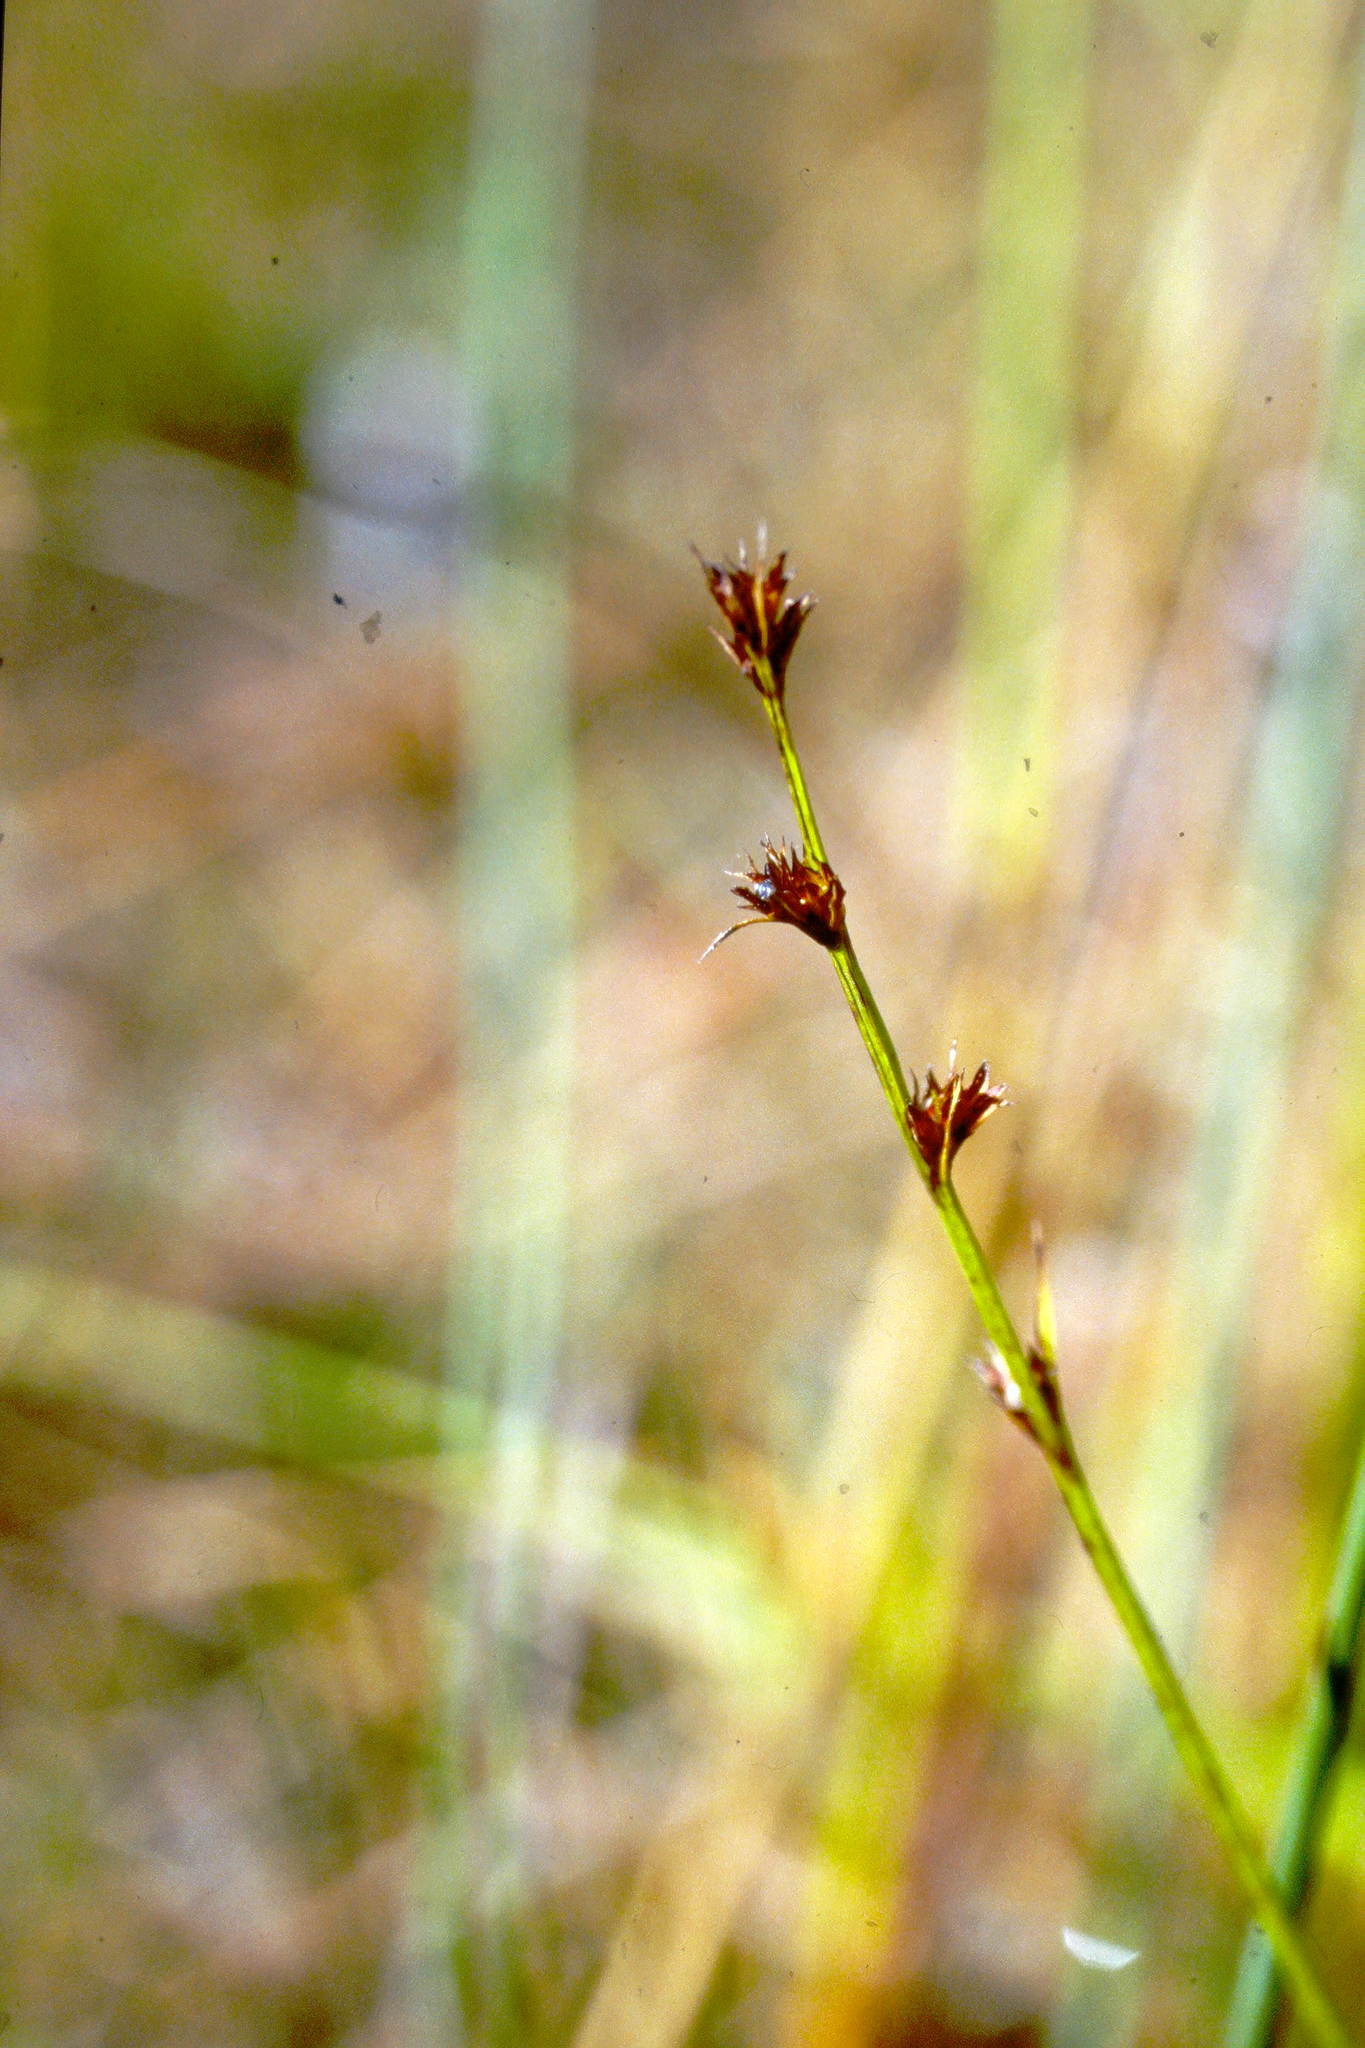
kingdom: Plantae
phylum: Tracheophyta
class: Liliopsida
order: Poales
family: Cyperaceae
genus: Scleria
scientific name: Scleria verticillata
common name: Low nutrush
